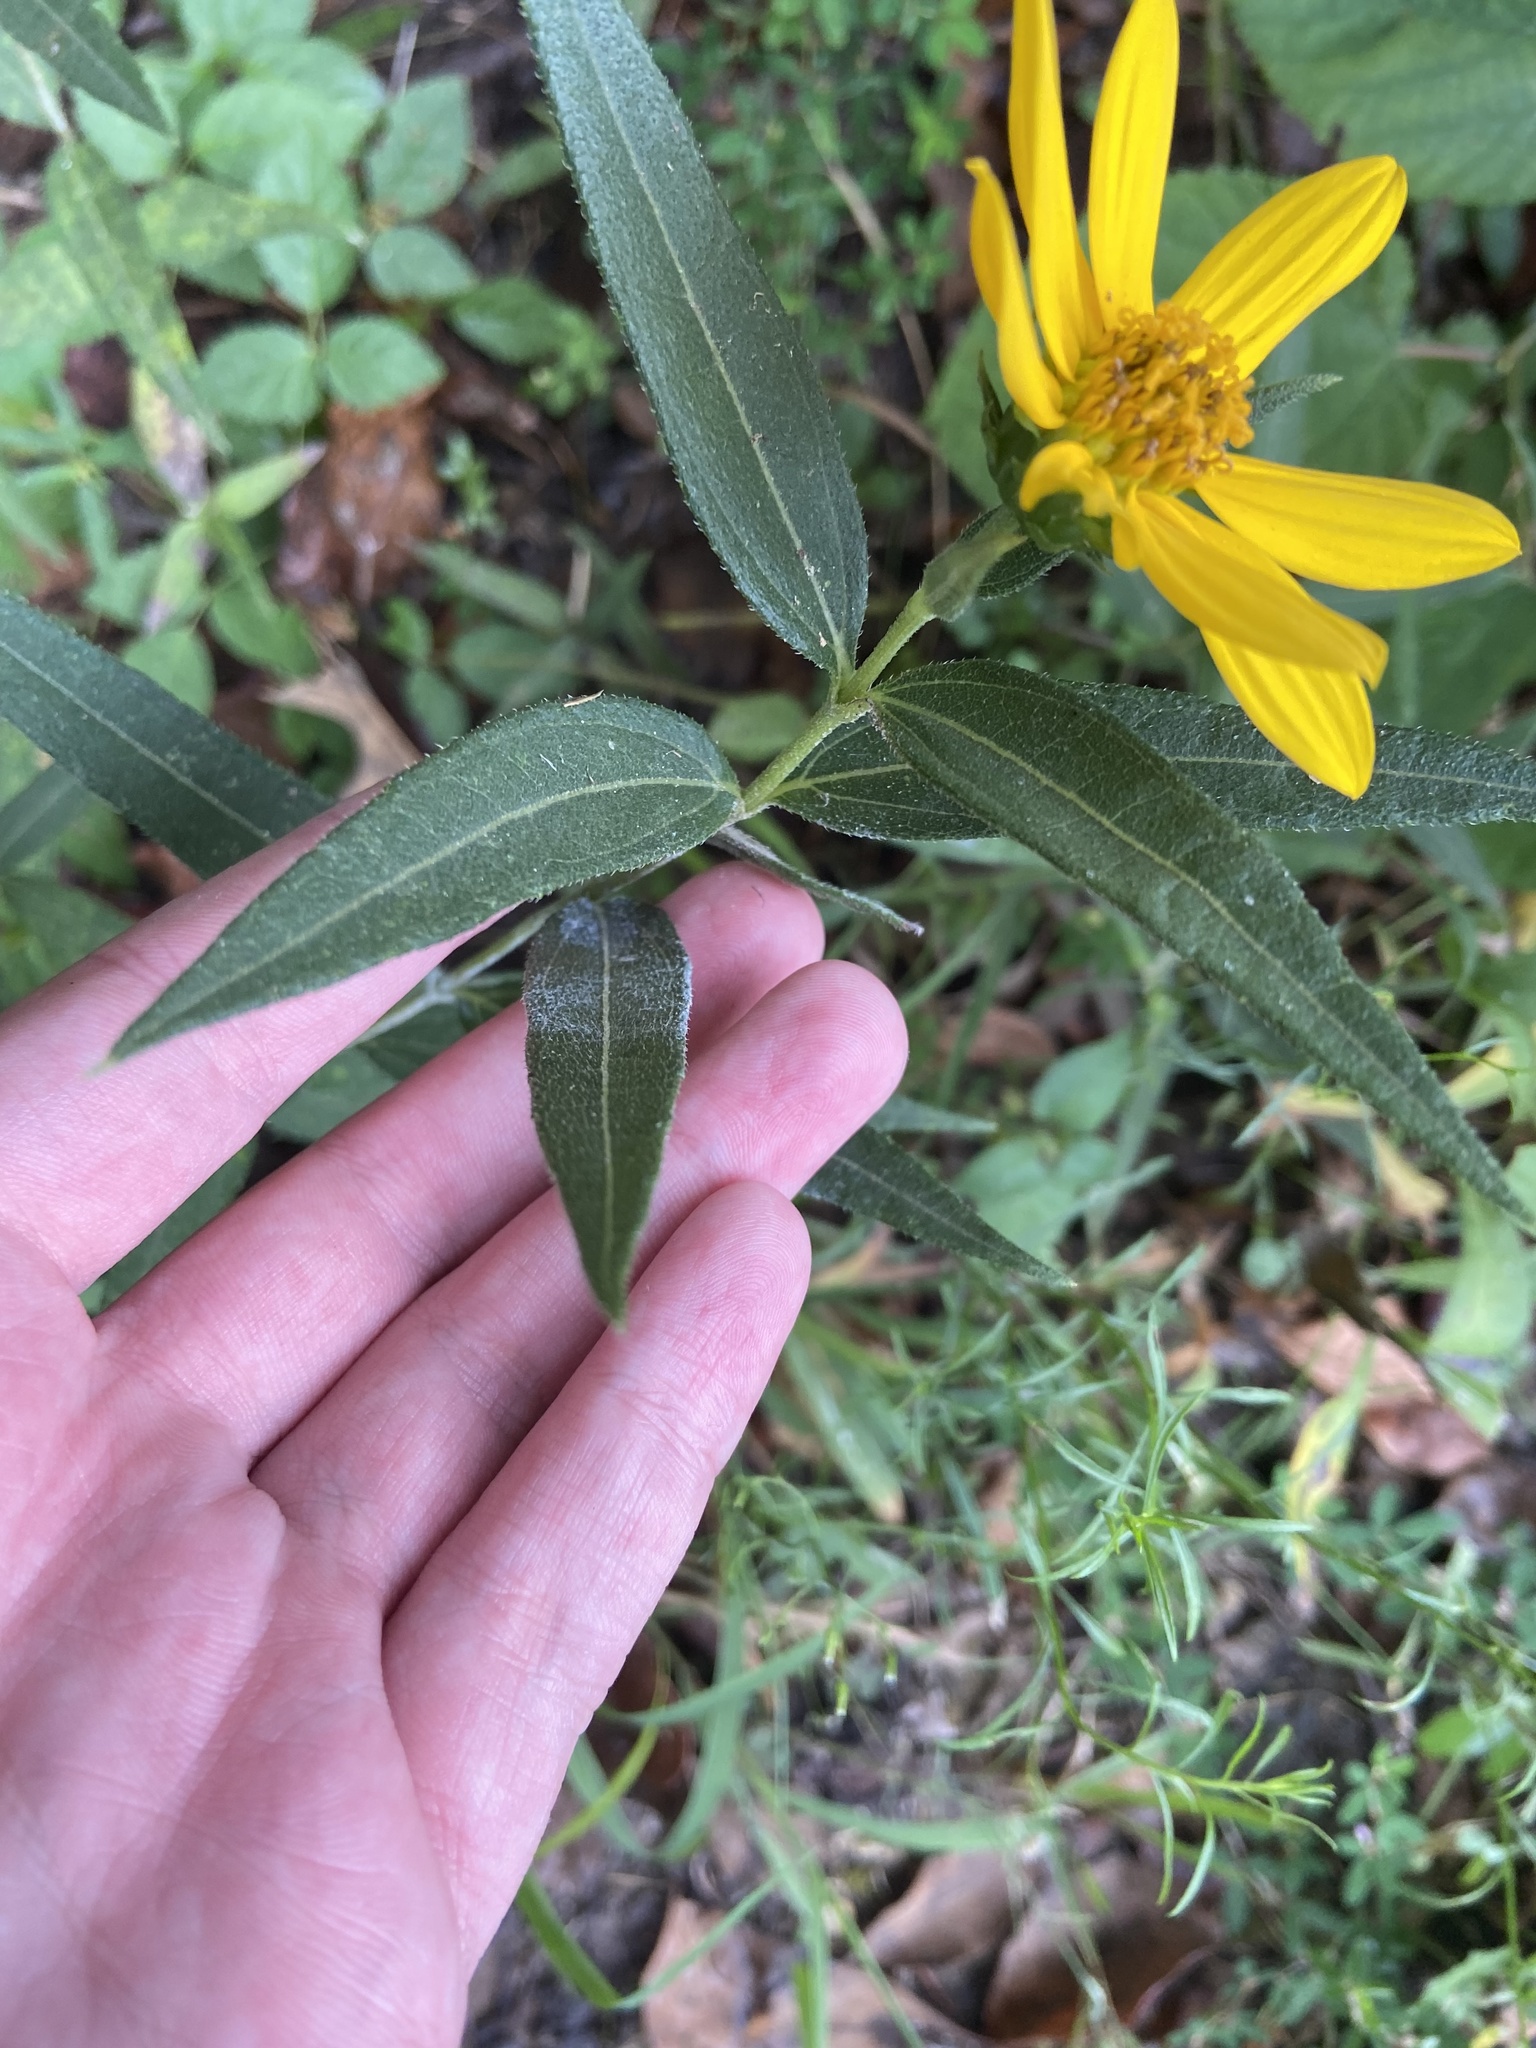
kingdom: Plantae
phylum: Tracheophyta
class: Magnoliopsida
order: Asterales
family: Asteraceae
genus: Helianthus
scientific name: Helianthus hirsutus
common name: Hairy sunflower
